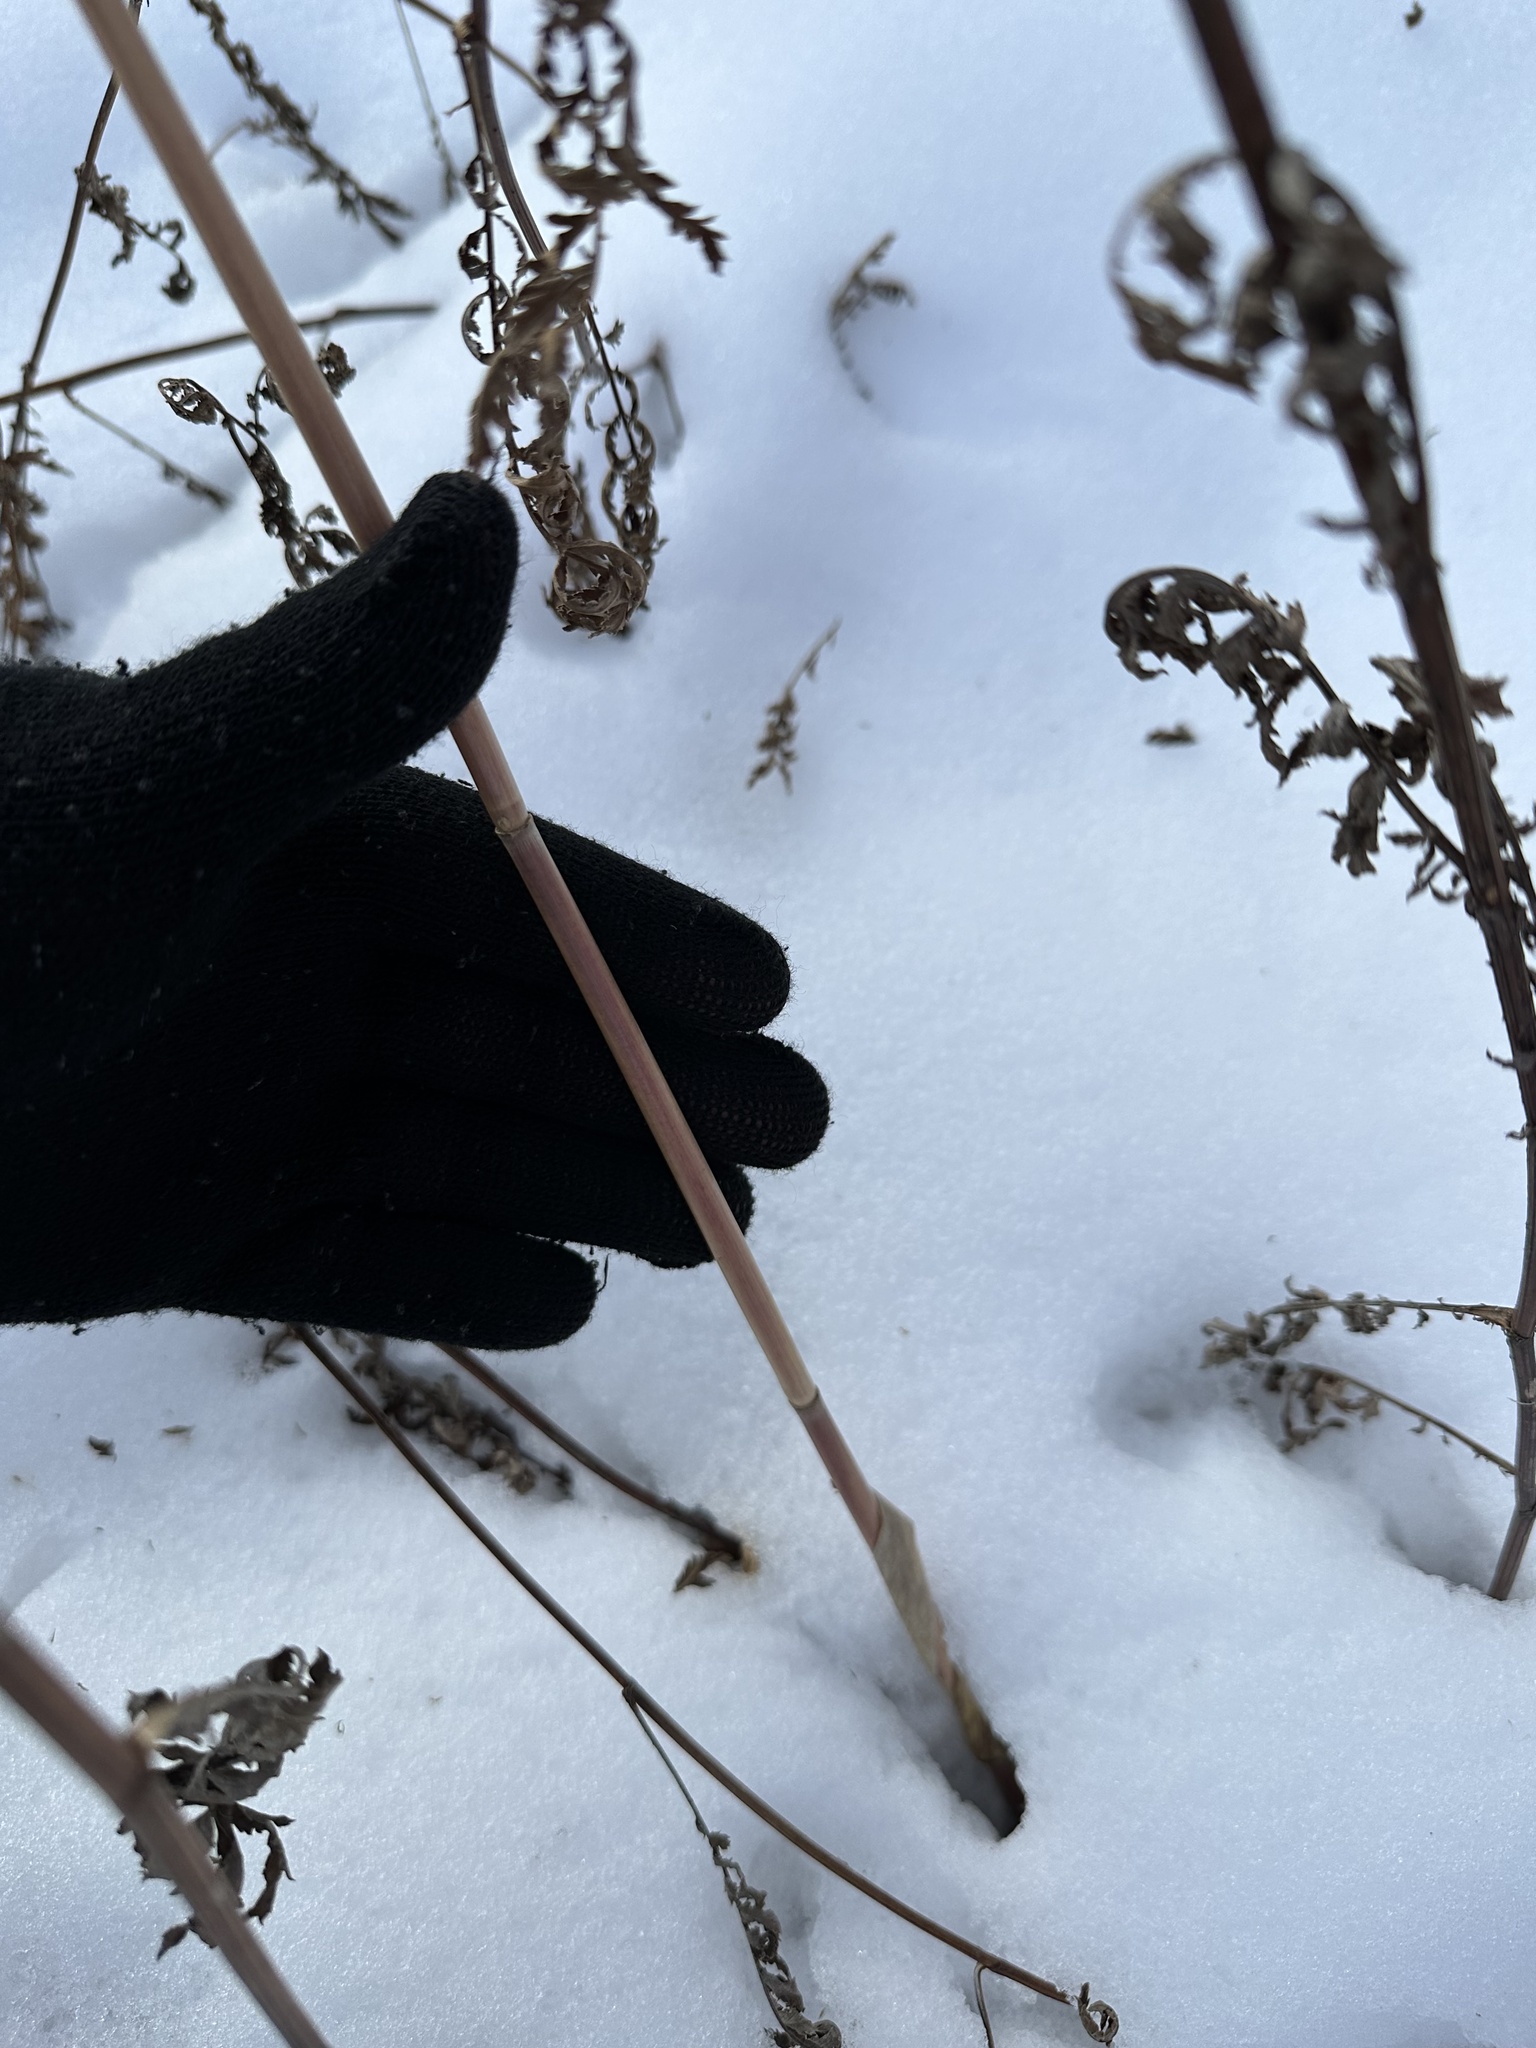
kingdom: Plantae
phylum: Tracheophyta
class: Liliopsida
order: Poales
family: Poaceae
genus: Phragmites
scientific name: Phragmites australis
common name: Common reed
